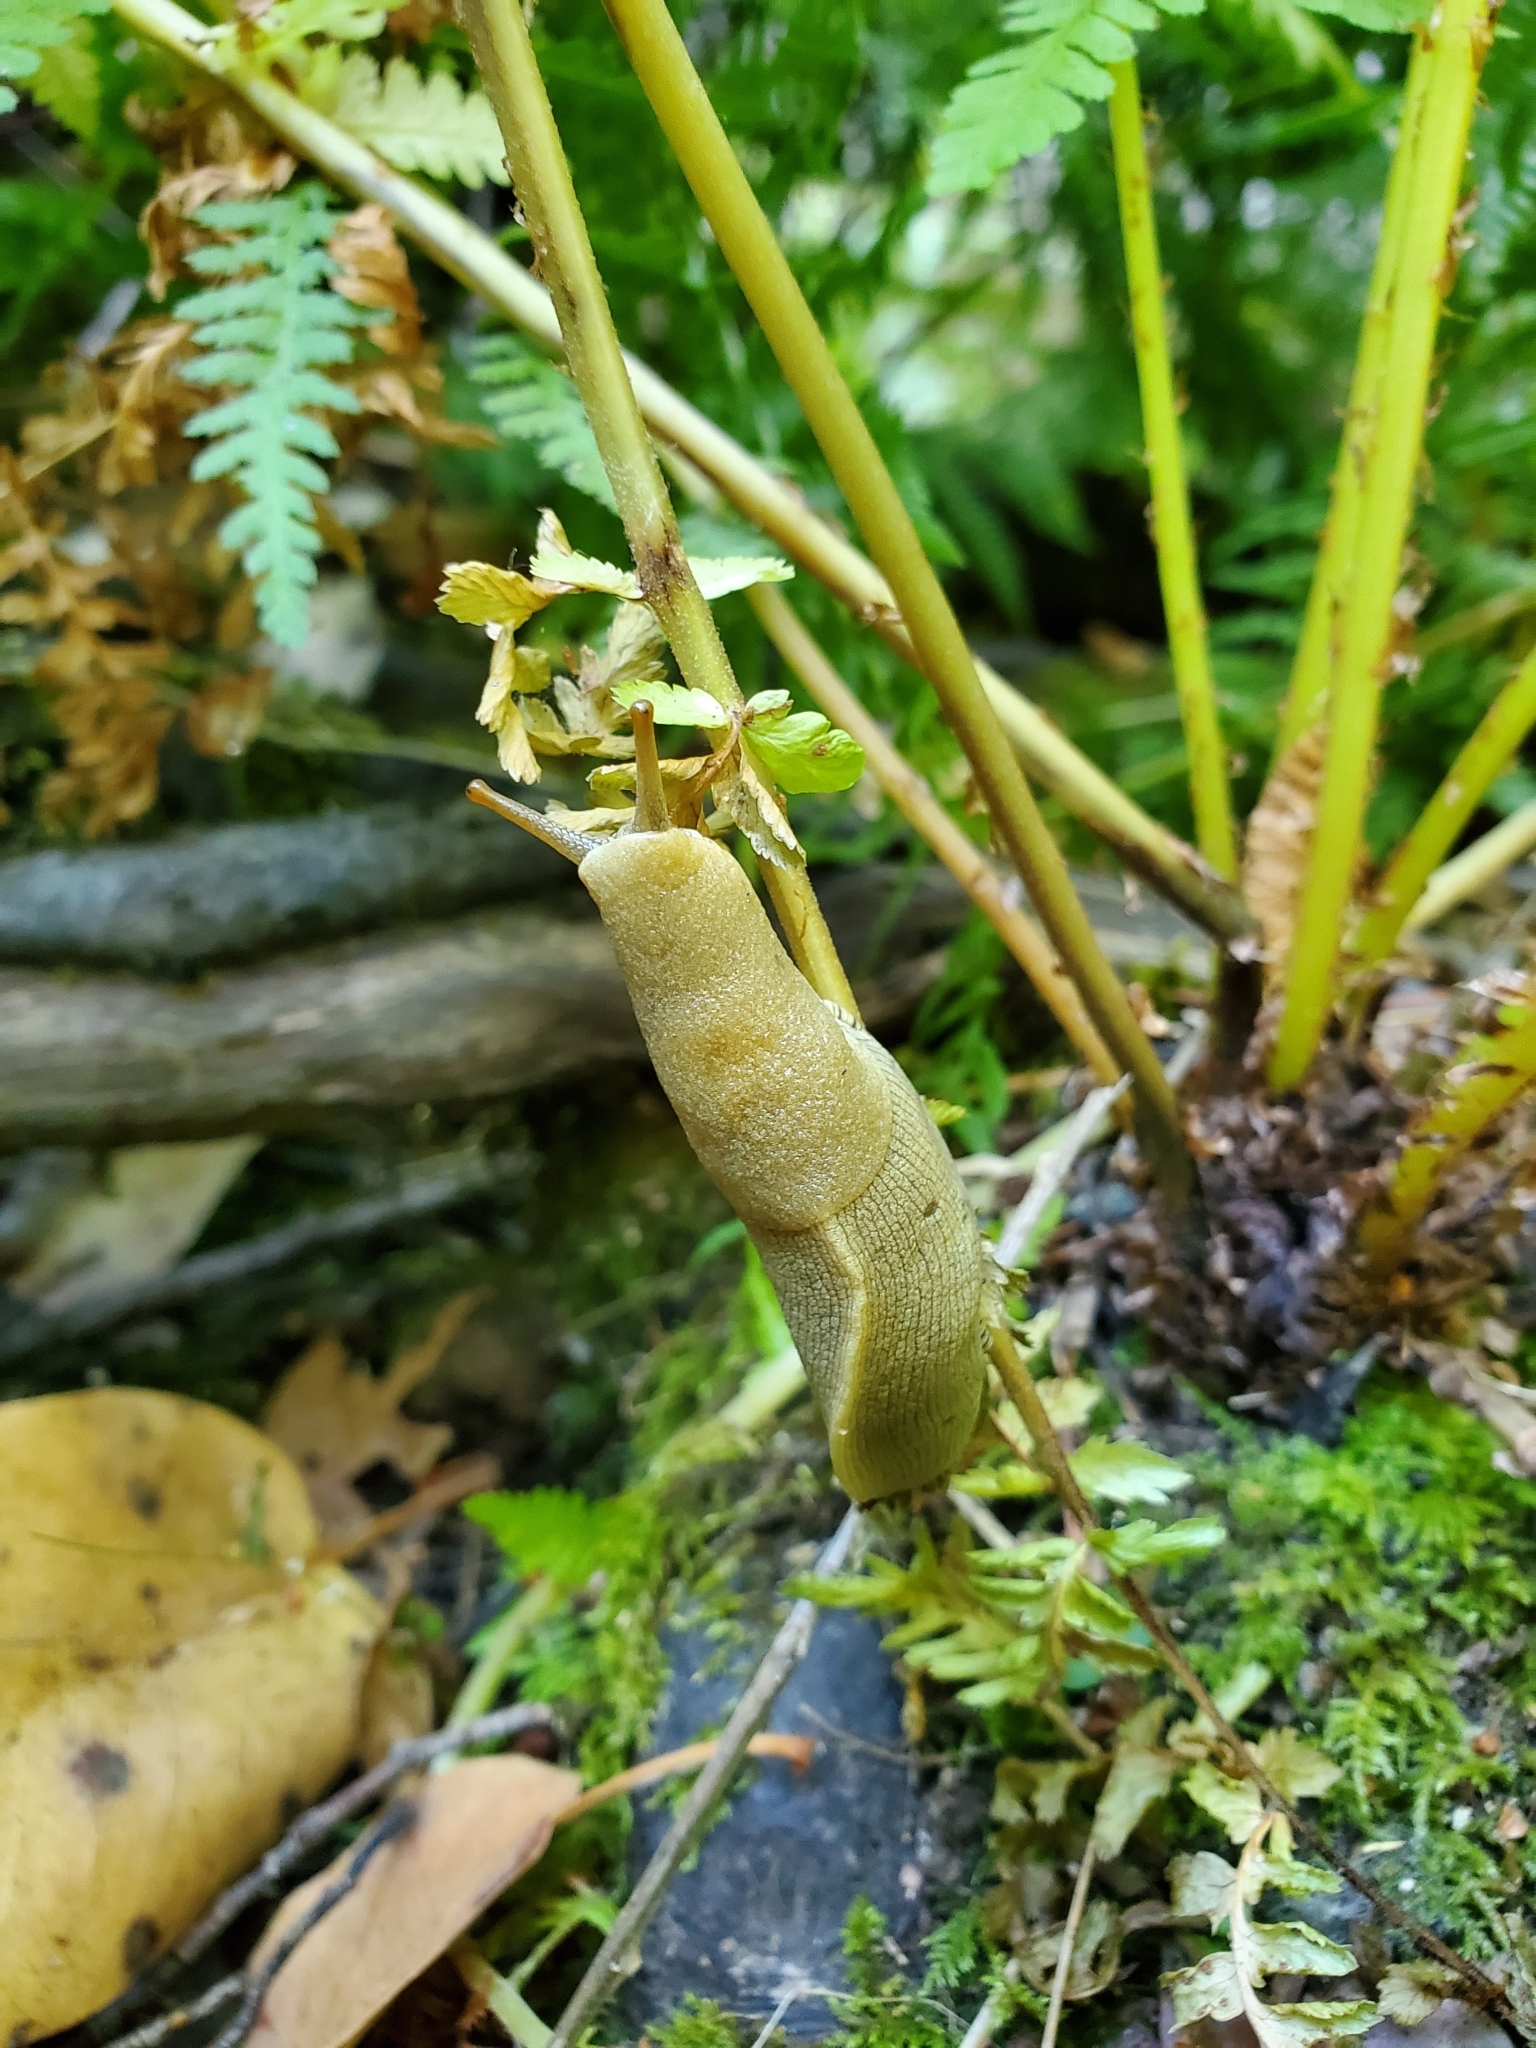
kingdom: Animalia
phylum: Mollusca
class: Gastropoda
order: Stylommatophora
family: Ariolimacidae
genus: Ariolimax
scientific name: Ariolimax buttoni
